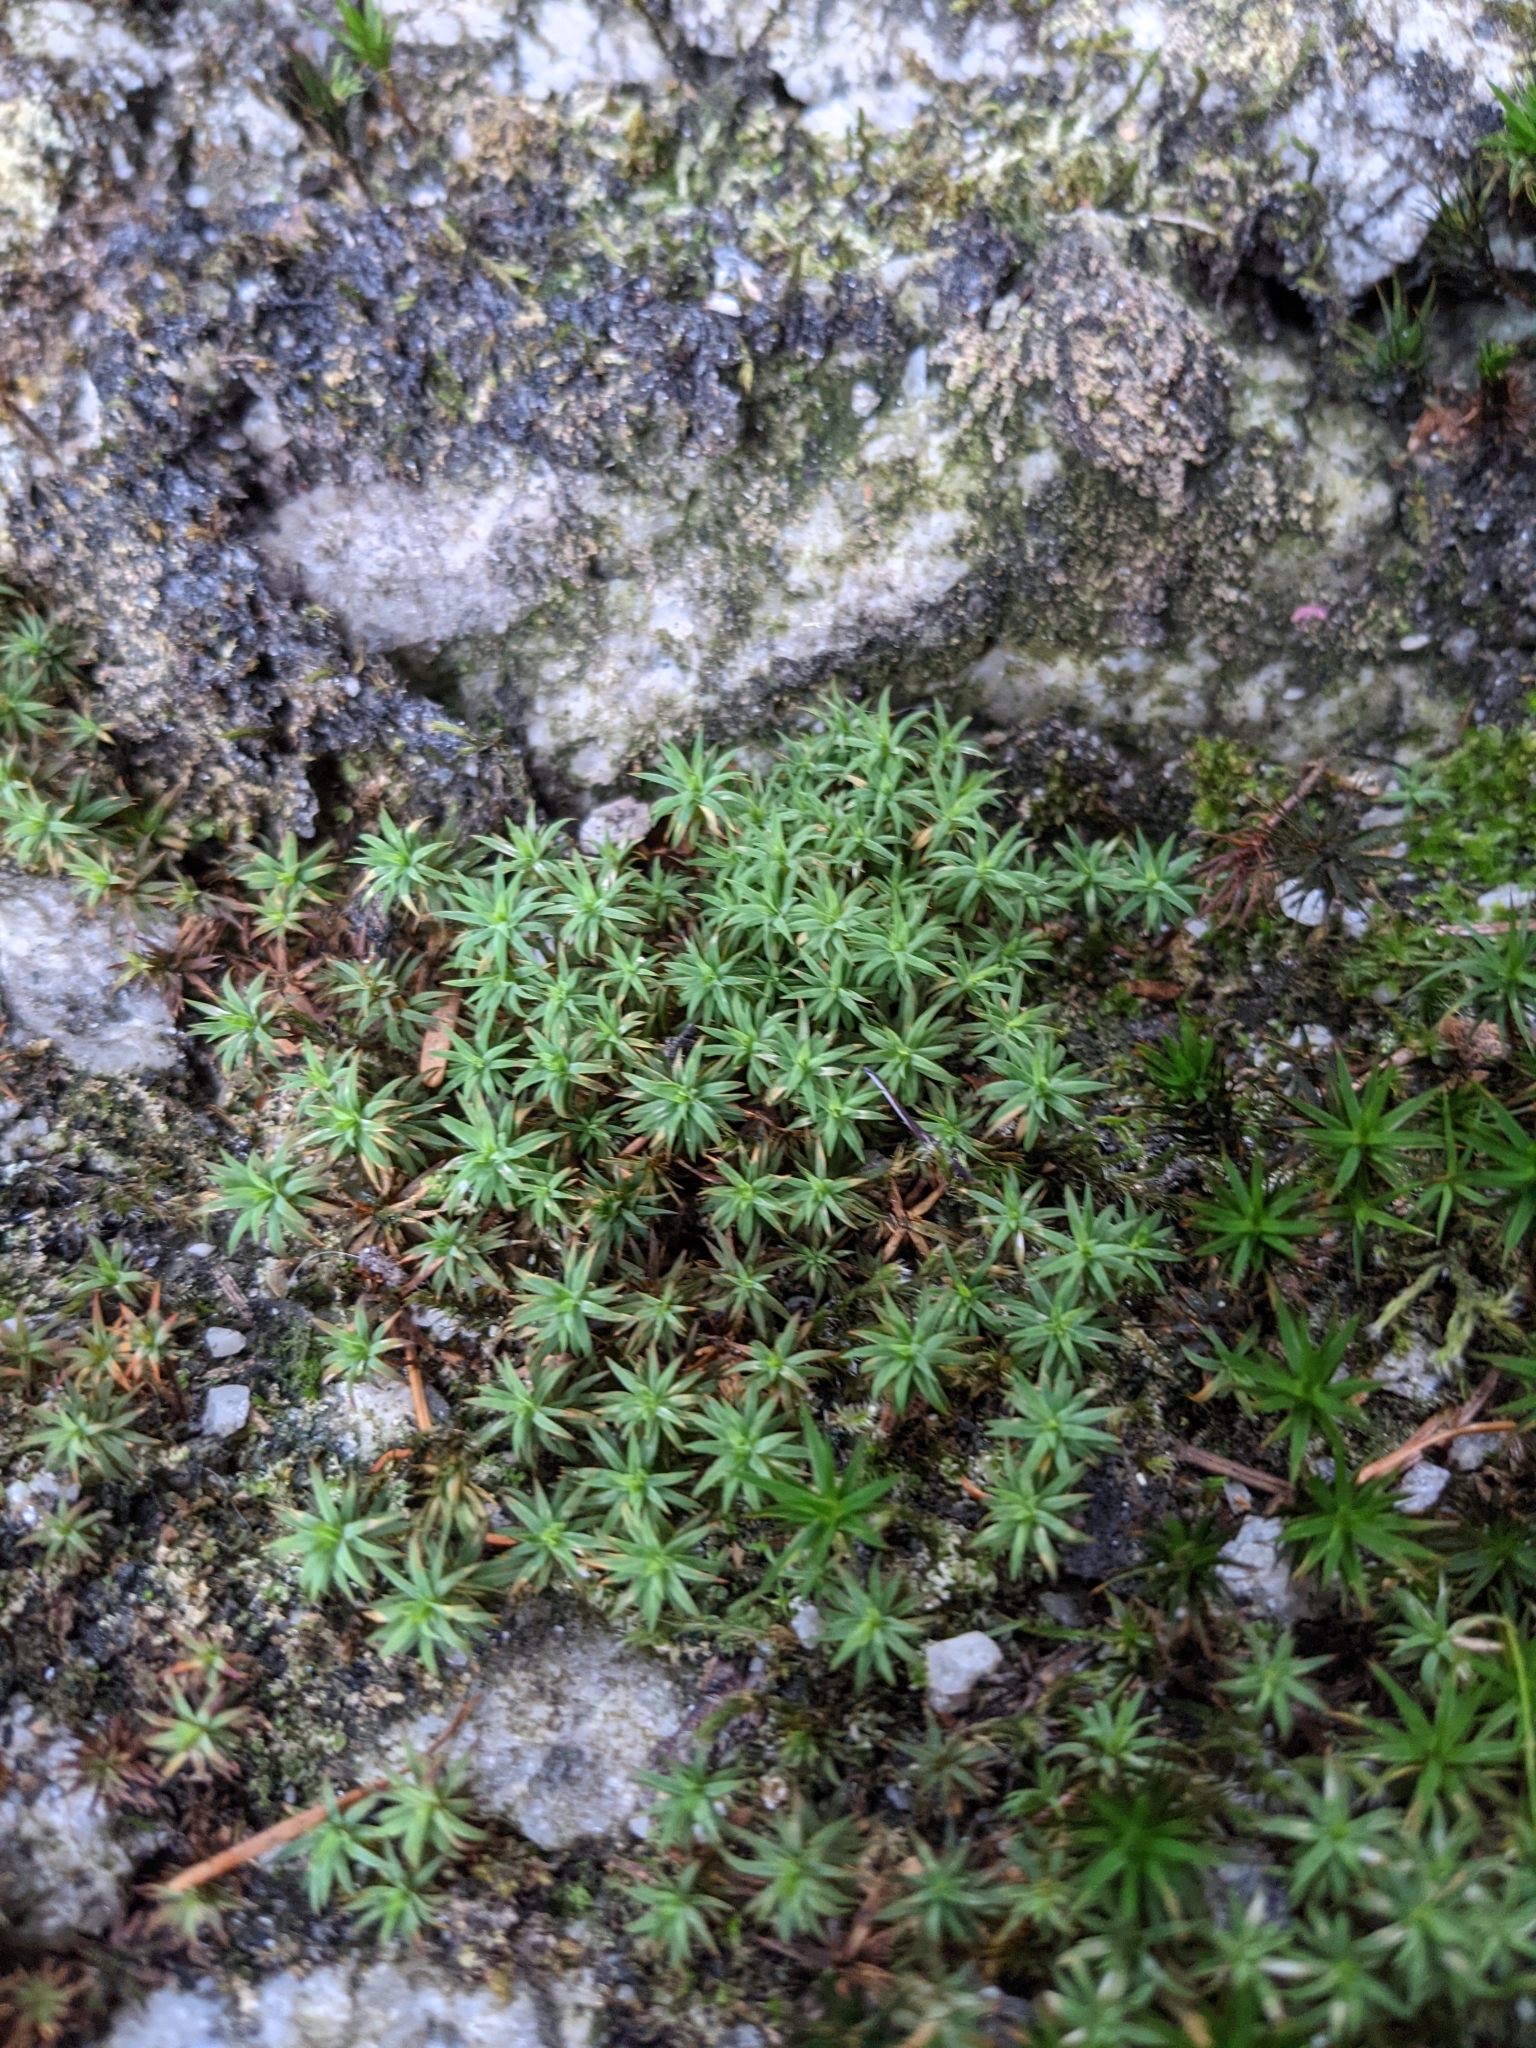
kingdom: Plantae
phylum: Bryophyta
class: Polytrichopsida
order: Polytrichales
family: Polytrichaceae
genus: Pogonatum
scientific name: Pogonatum urnigerum
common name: Urn hair moss
